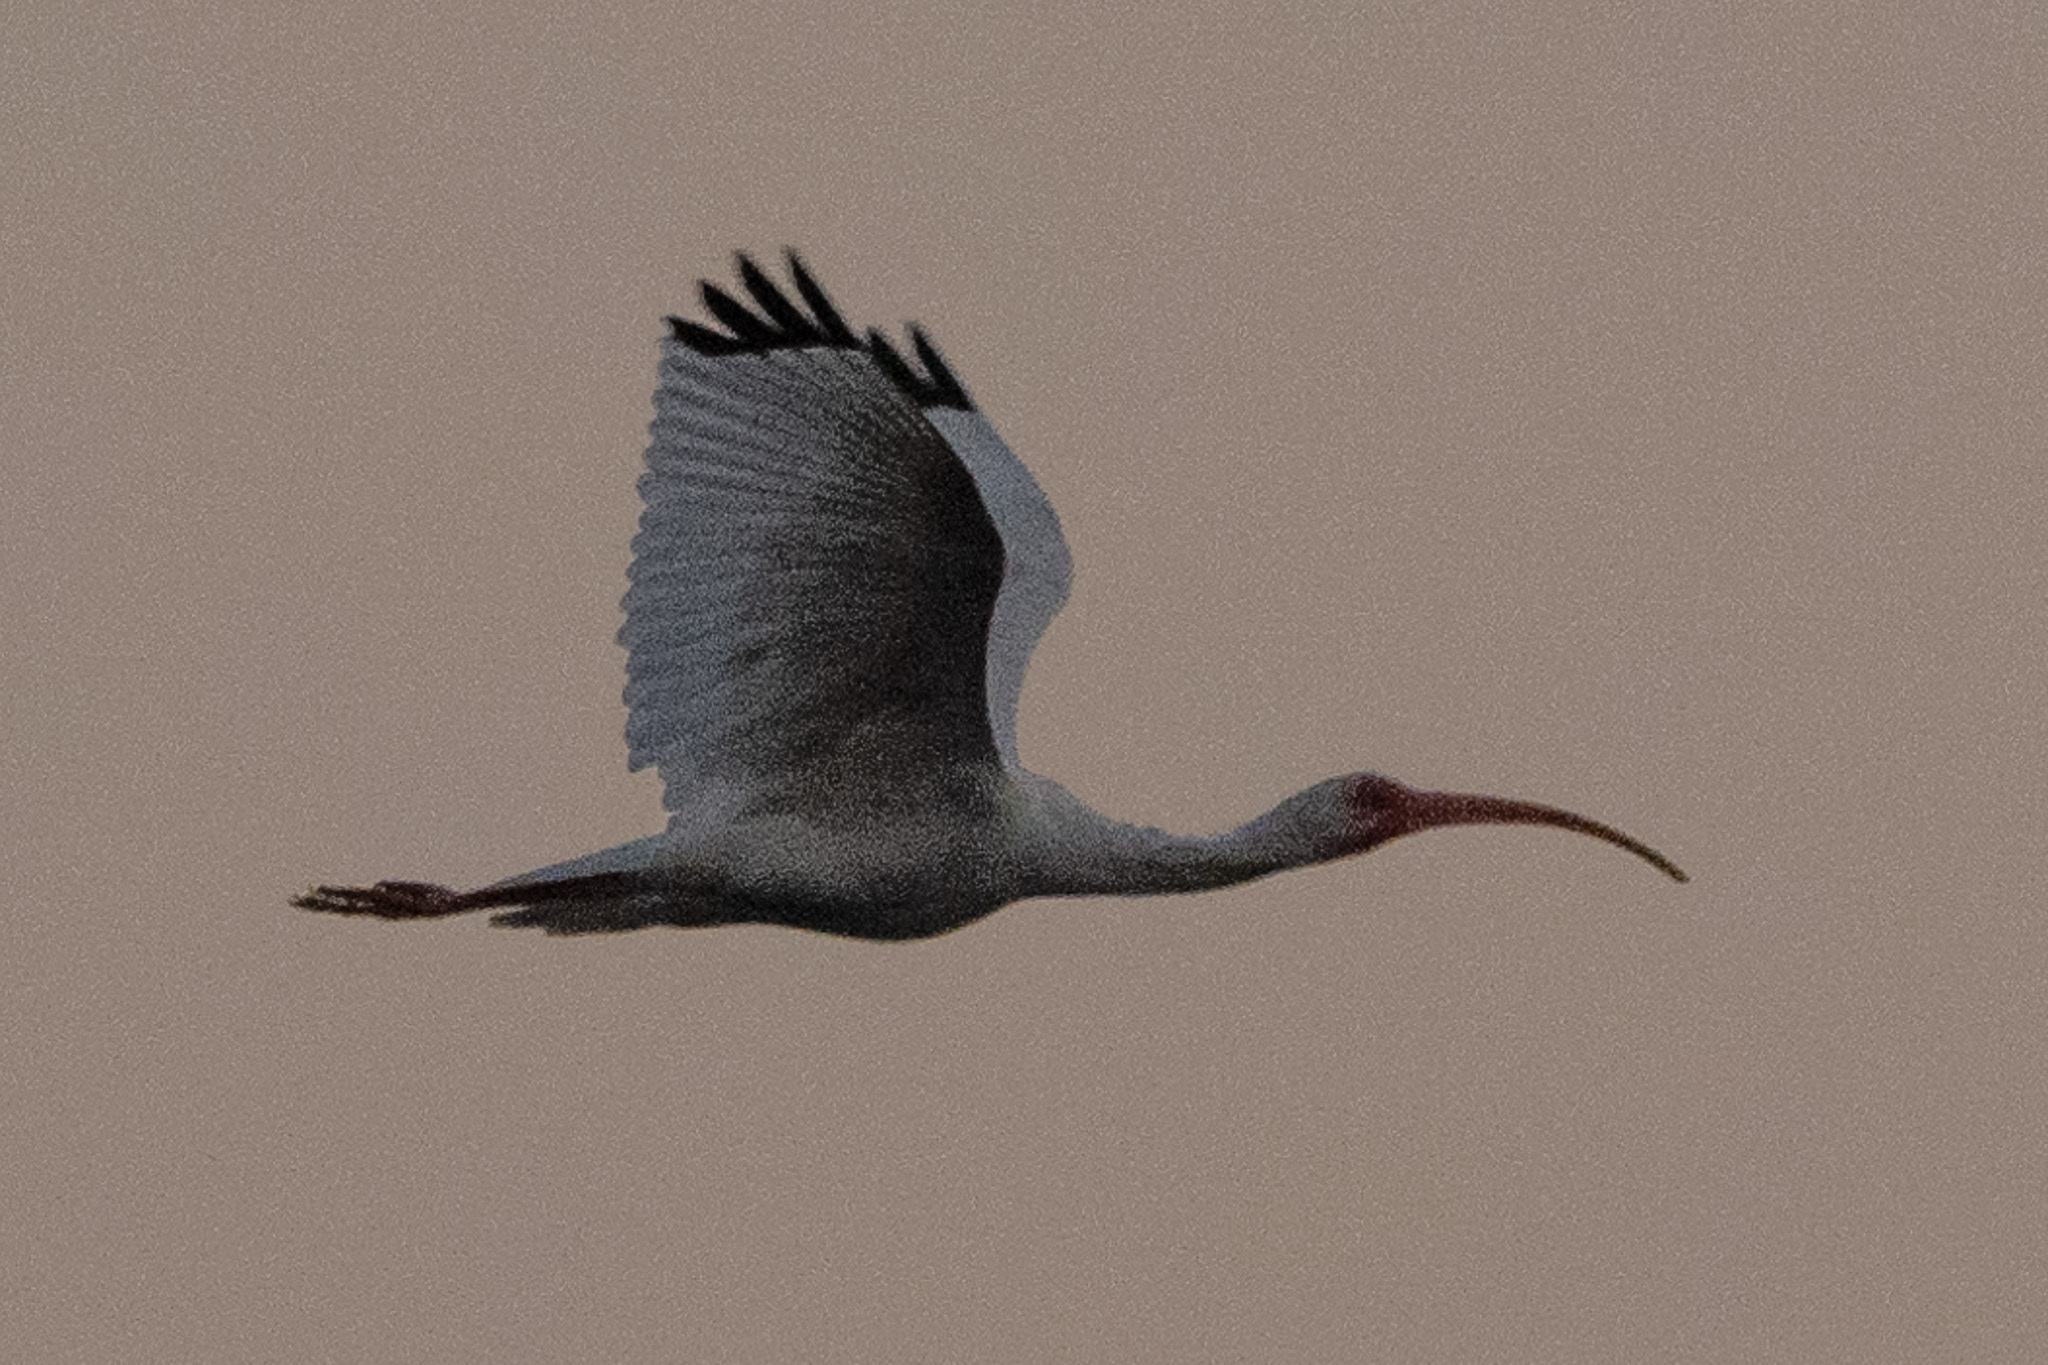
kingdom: Animalia
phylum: Chordata
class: Aves
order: Pelecaniformes
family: Threskiornithidae
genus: Eudocimus
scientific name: Eudocimus albus
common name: White ibis
